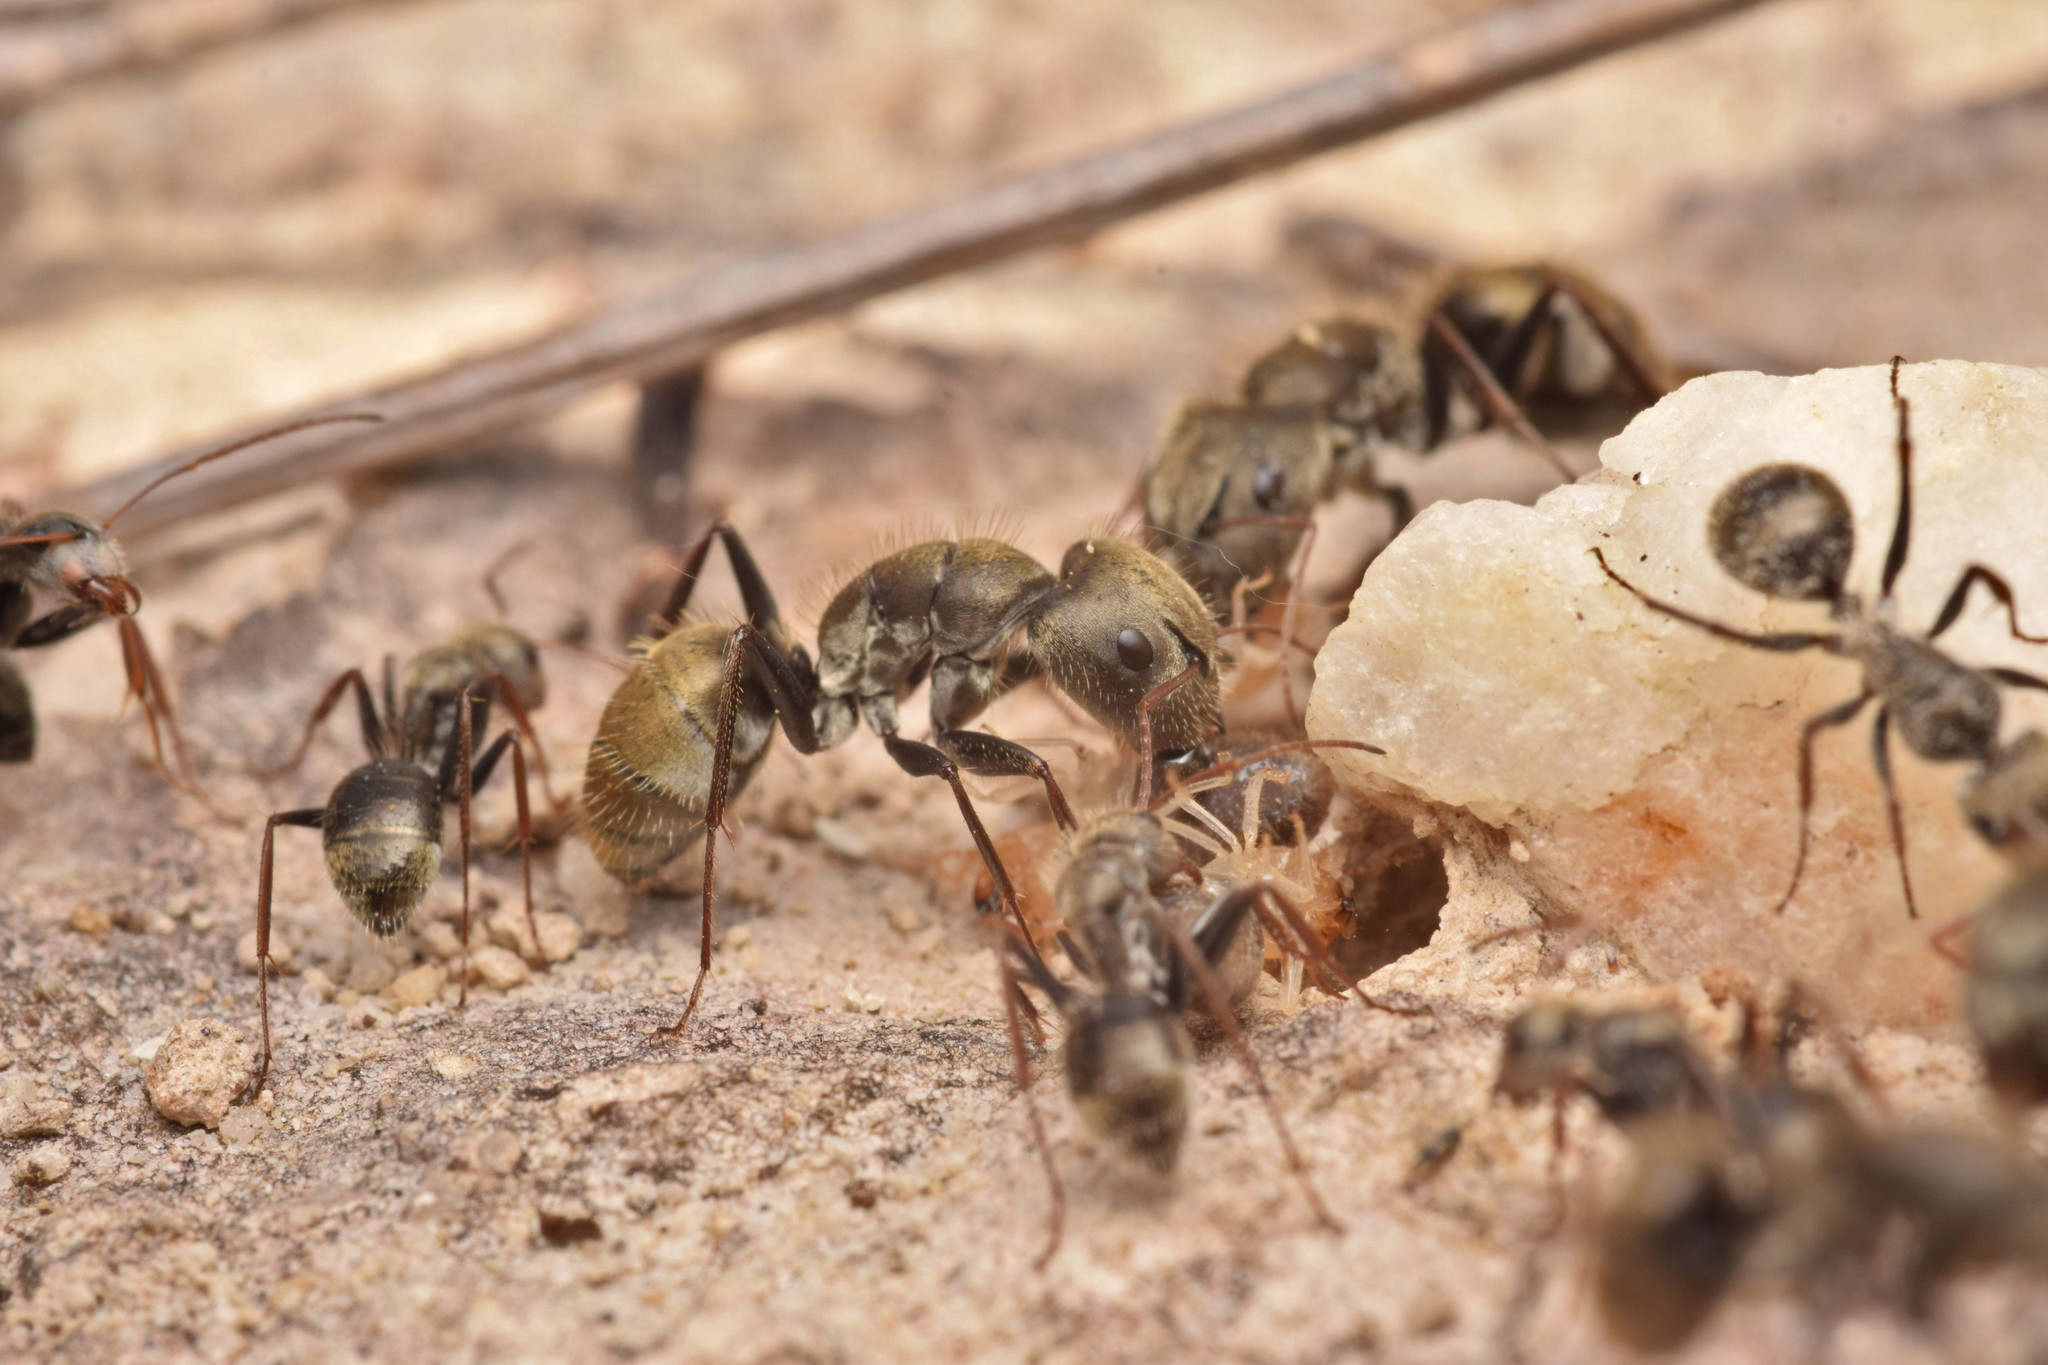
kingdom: Animalia
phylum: Arthropoda
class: Insecta
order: Hymenoptera
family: Formicidae
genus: Camponotus
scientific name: Camponotus blandus
